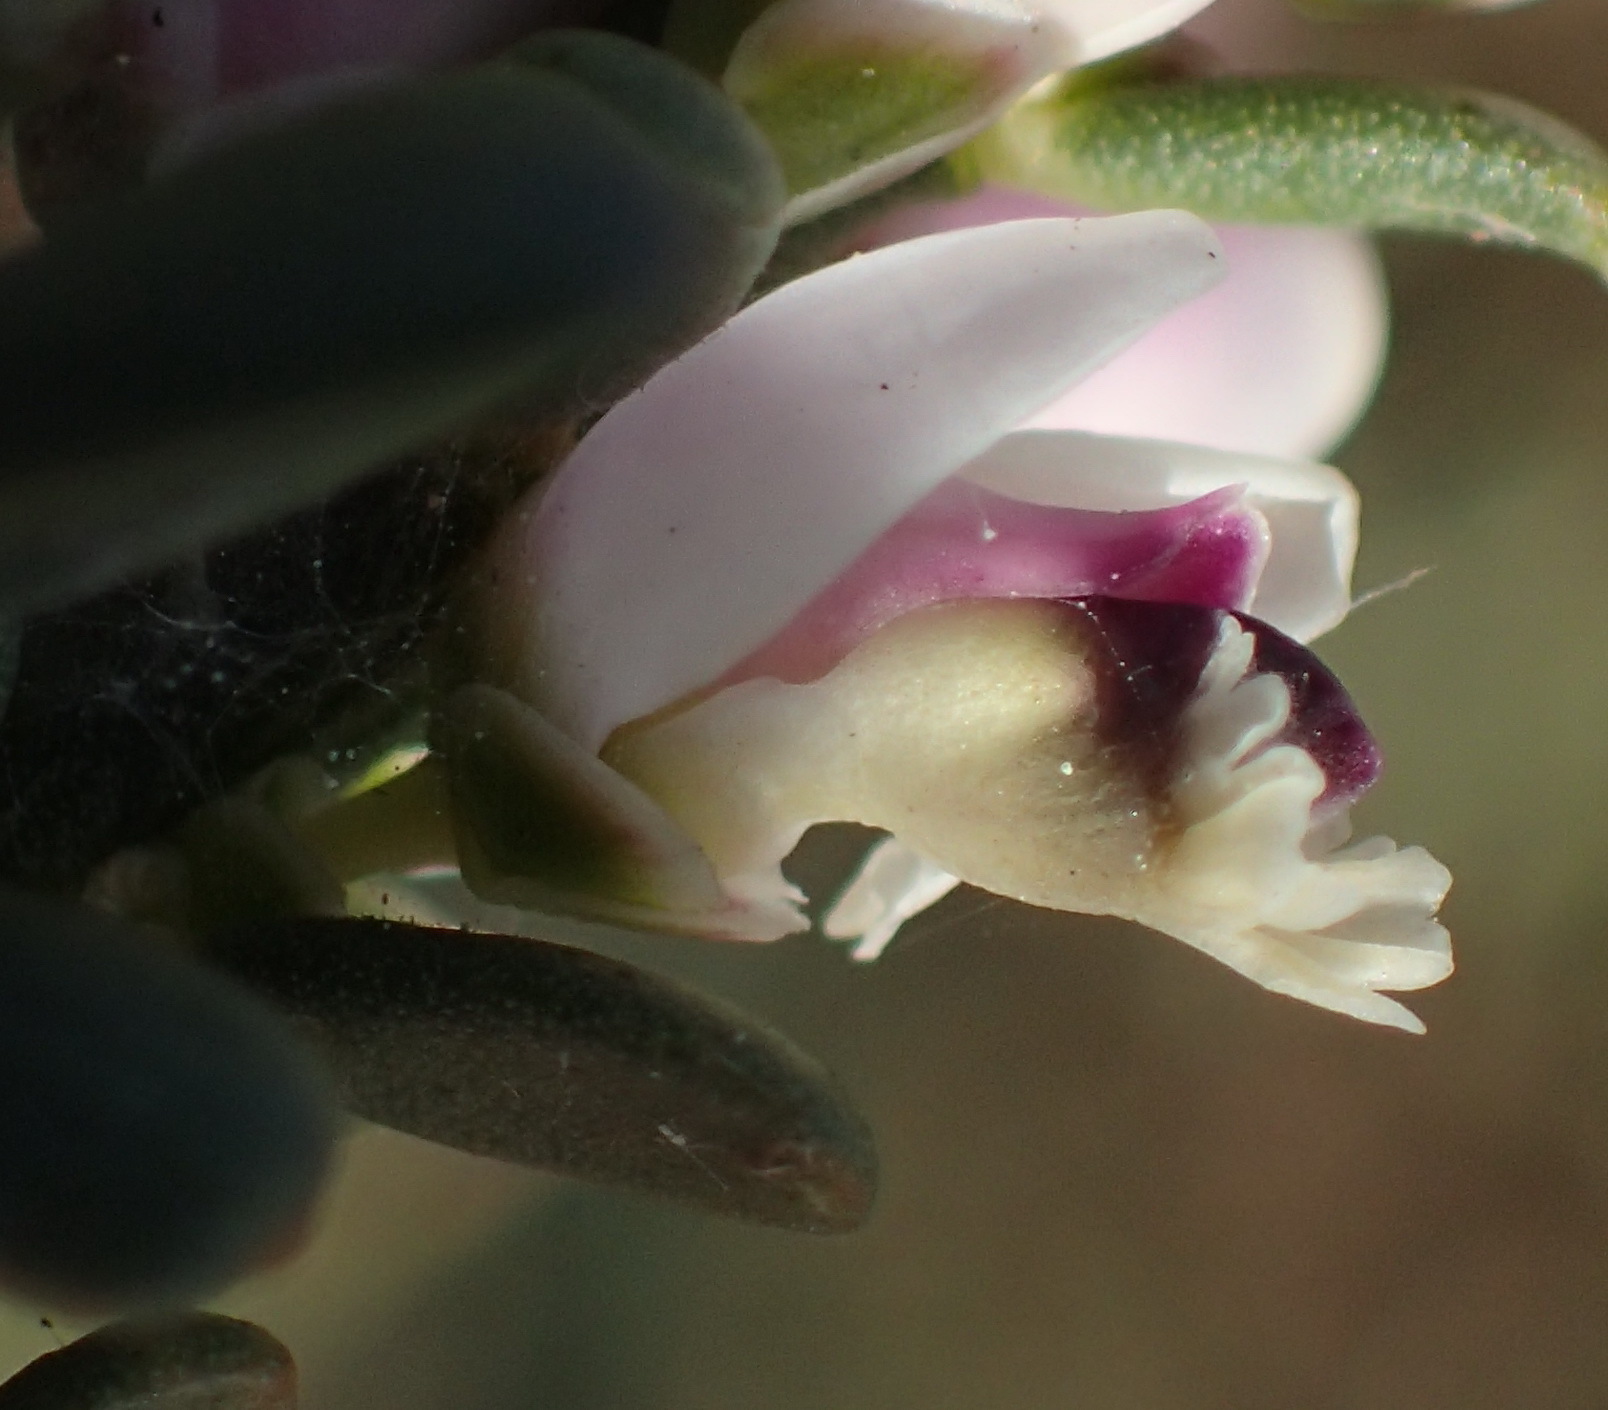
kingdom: Plantae
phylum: Tracheophyta
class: Magnoliopsida
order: Fabales
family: Polygalaceae
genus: Muraltia
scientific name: Muraltia spinosa
